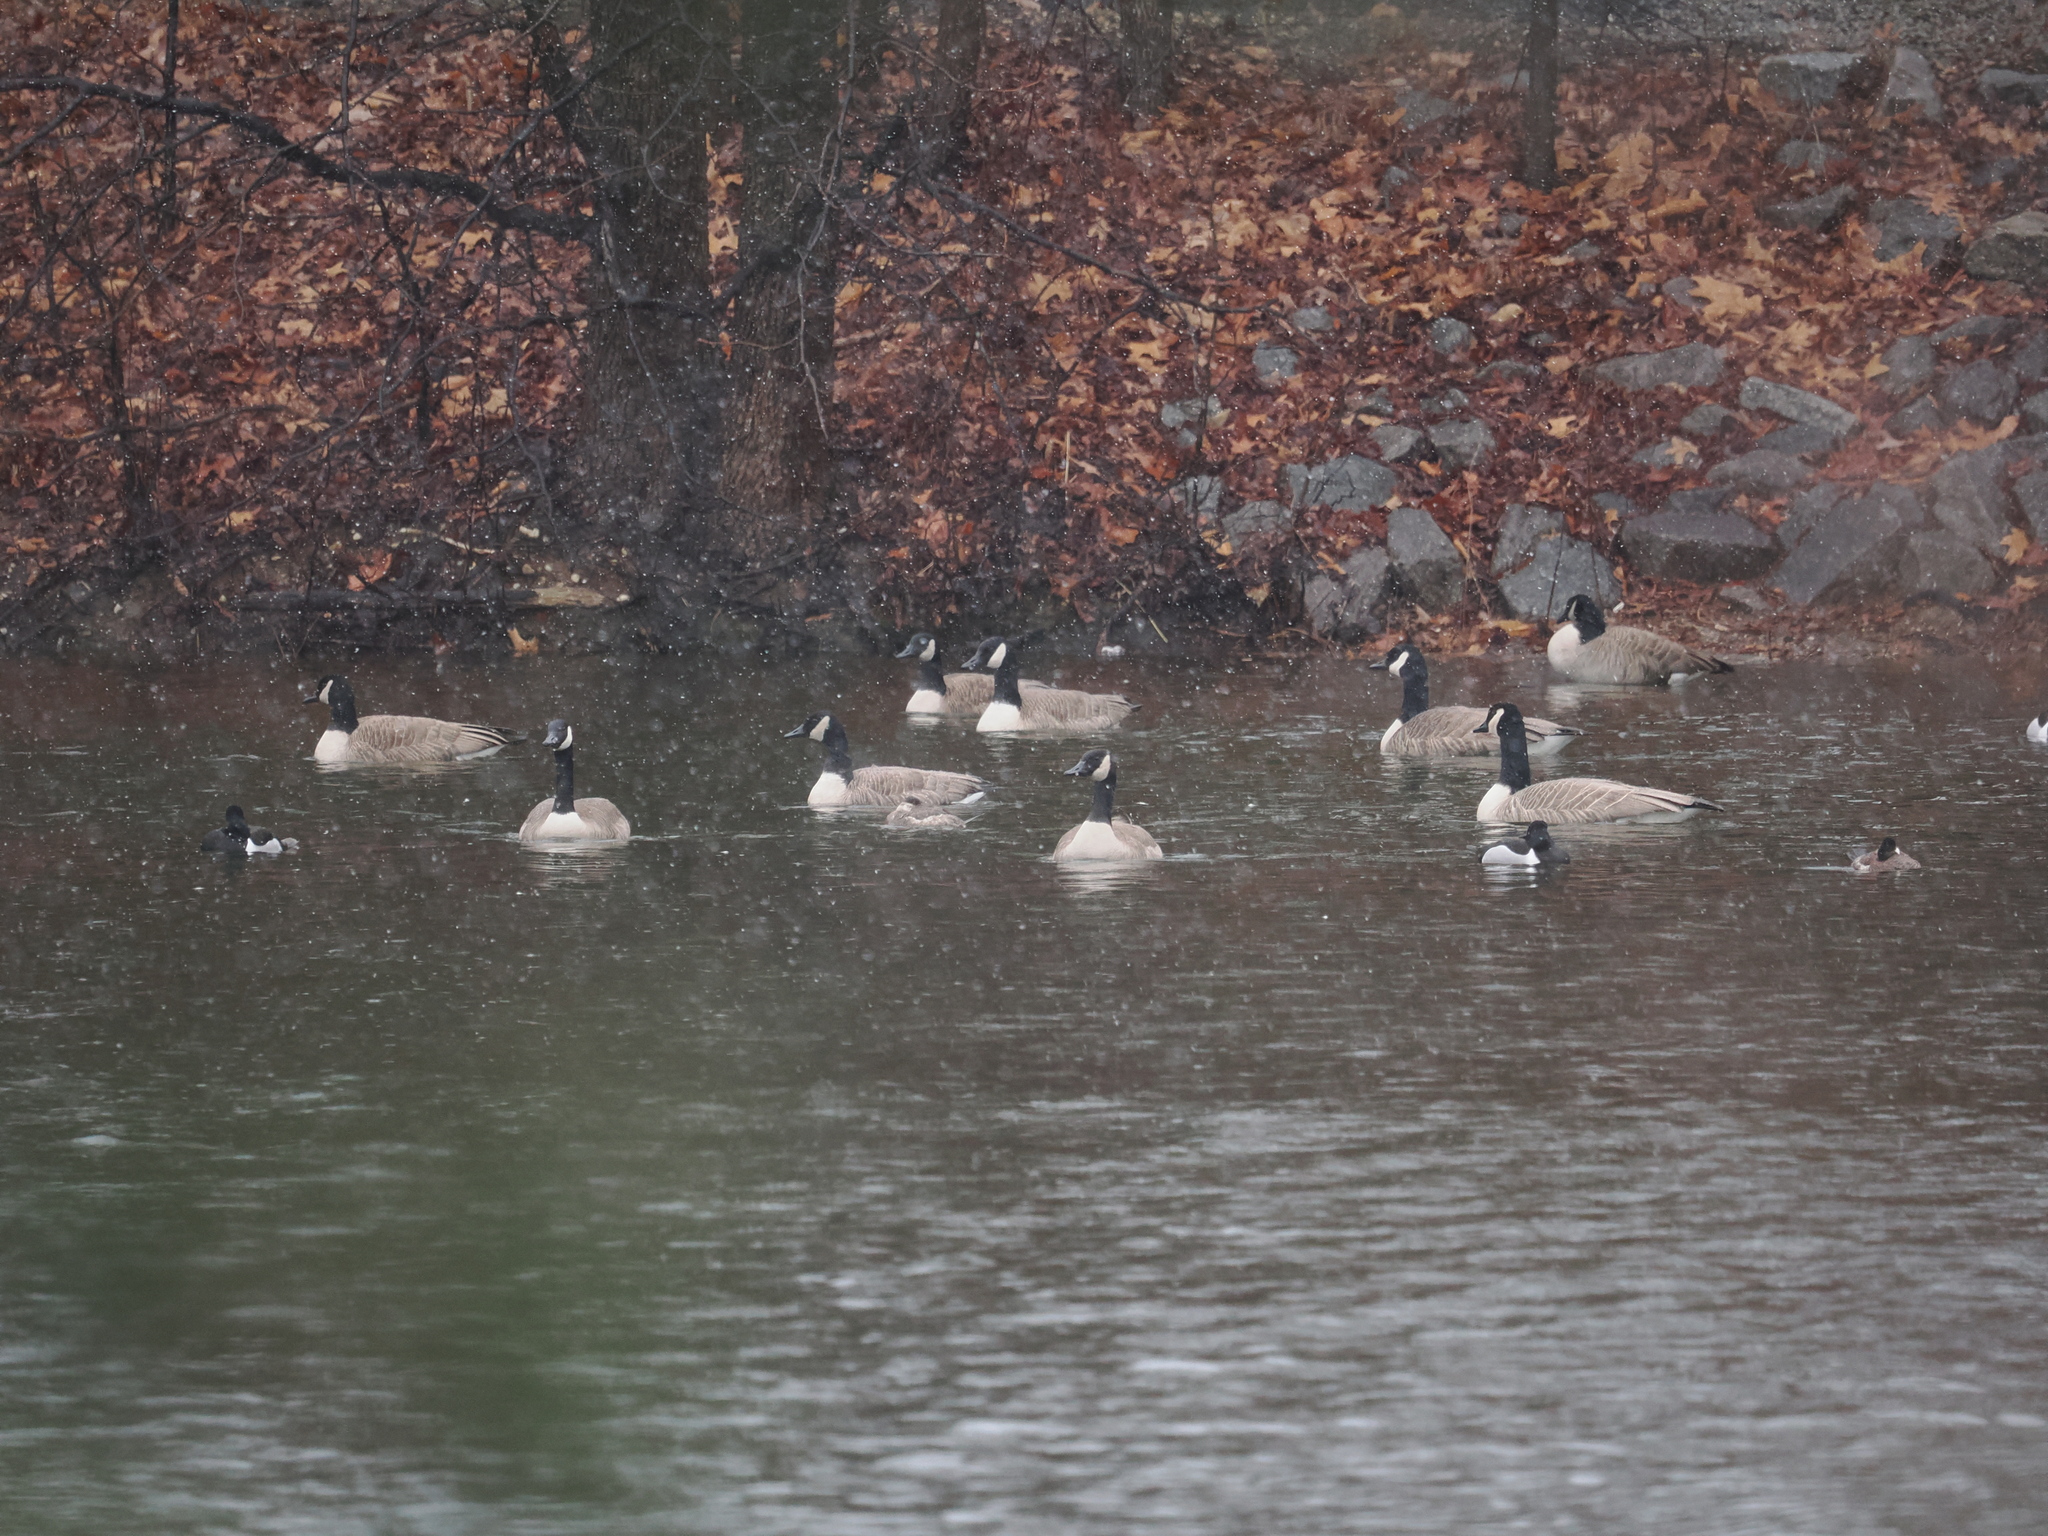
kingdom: Animalia
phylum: Chordata
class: Aves
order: Anseriformes
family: Anatidae
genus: Branta
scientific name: Branta canadensis
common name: Canada goose
